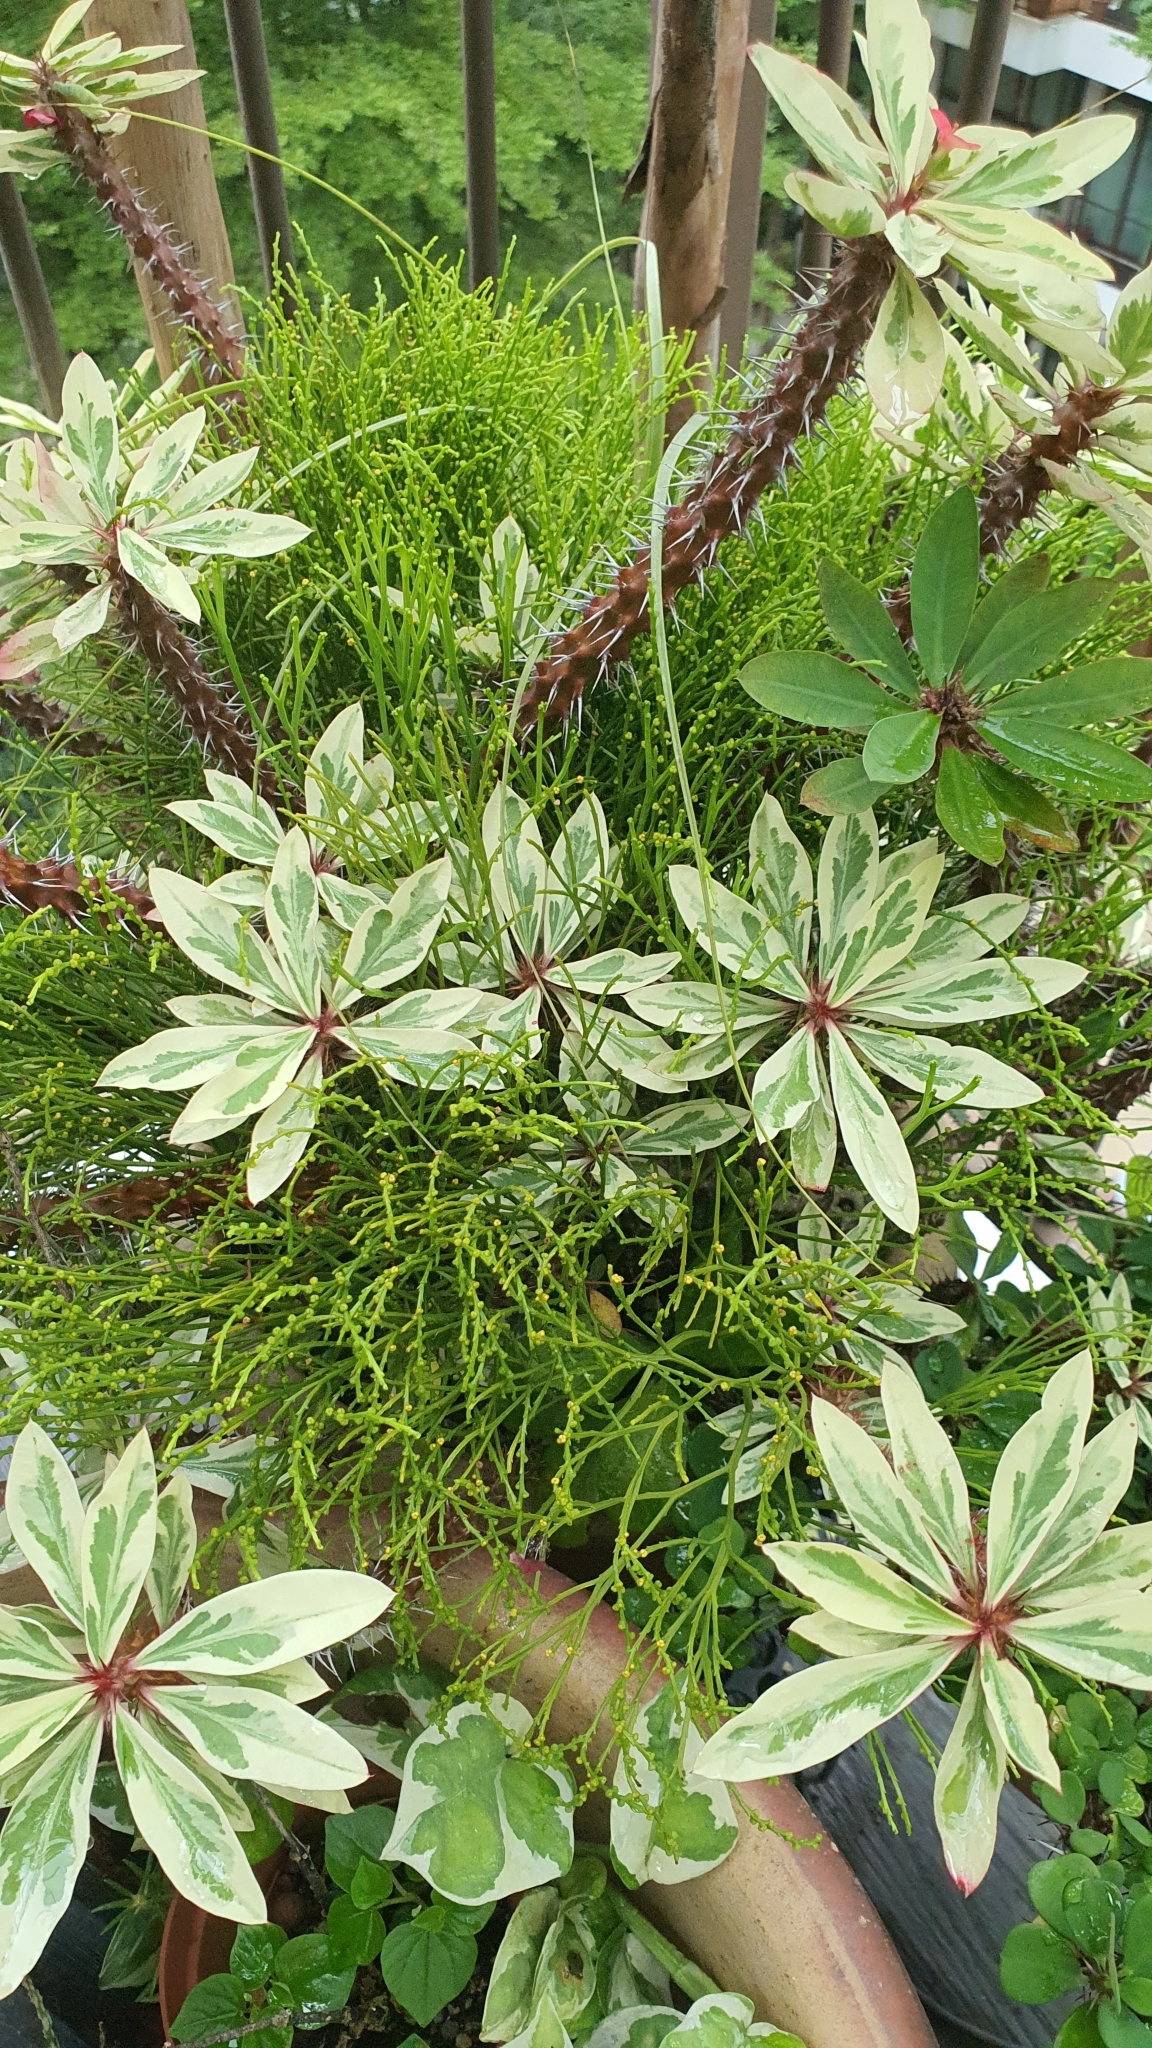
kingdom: Plantae
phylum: Tracheophyta
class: Polypodiopsida
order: Psilotales
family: Psilotaceae
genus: Psilotum
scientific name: Psilotum nudum
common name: Skeleton fork fern
